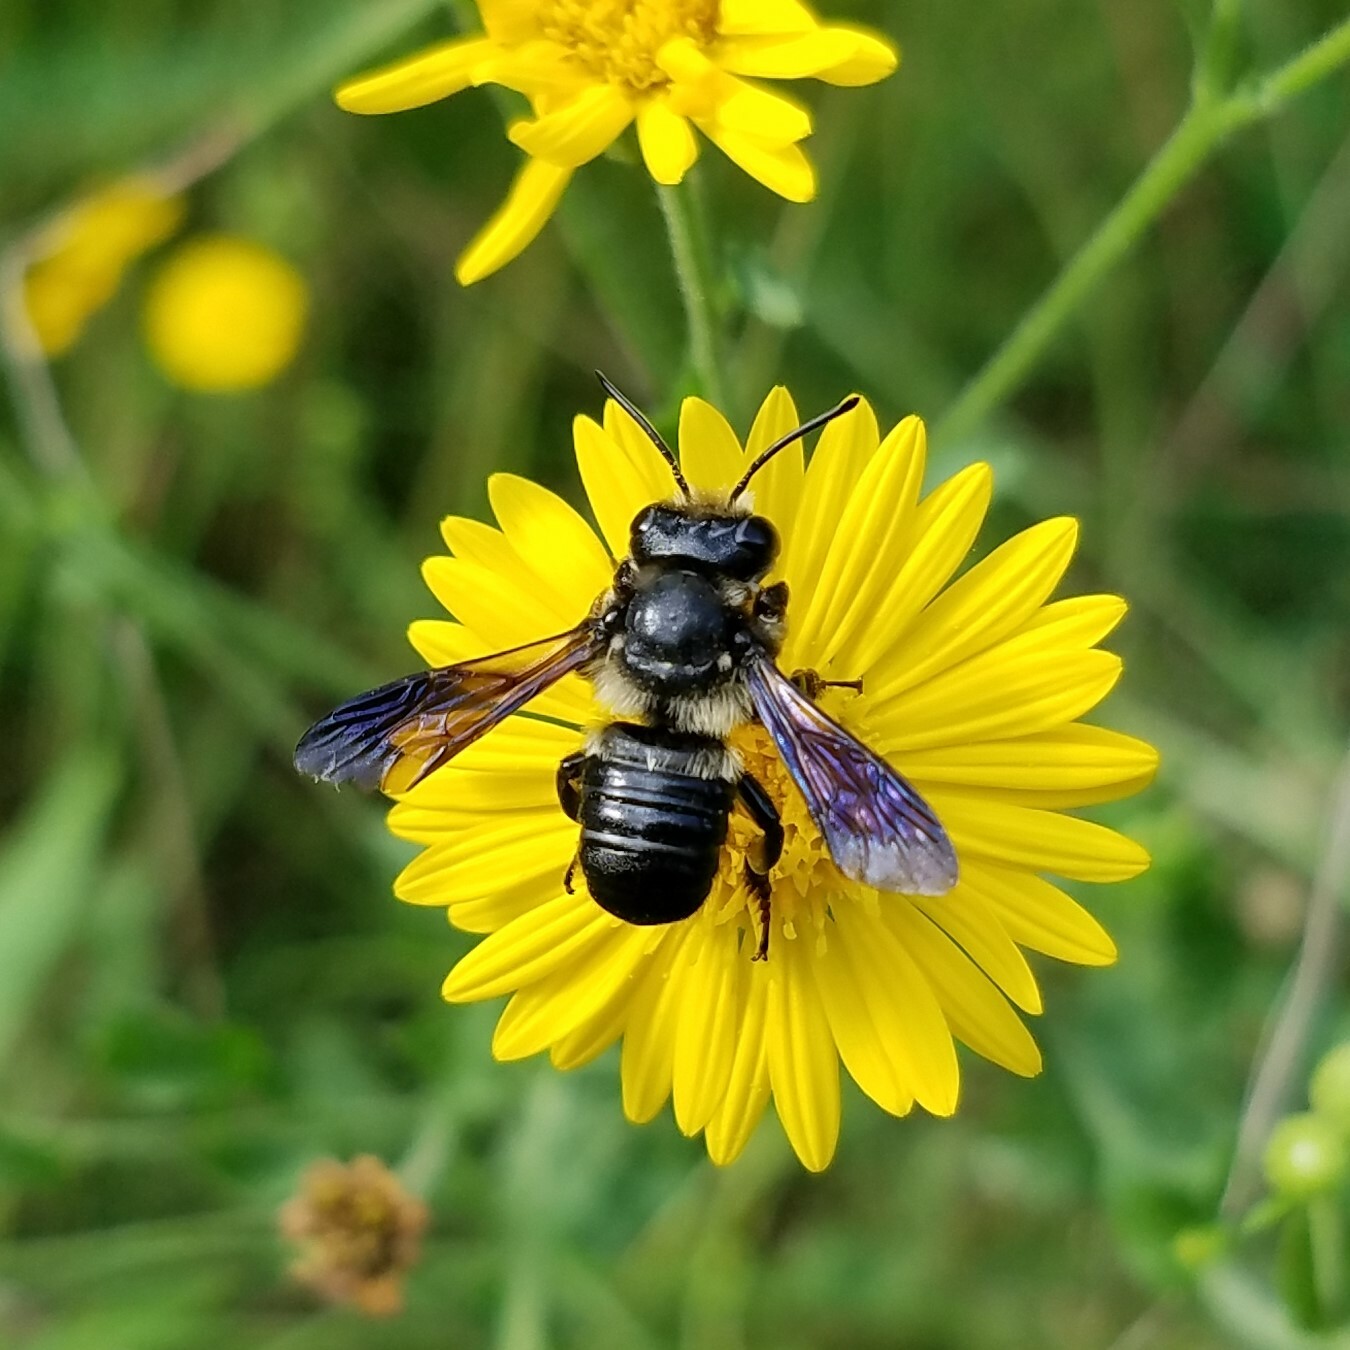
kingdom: Animalia
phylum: Arthropoda
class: Insecta
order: Hymenoptera
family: Megachilidae
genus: Megachile
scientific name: Megachile xylocopoides
